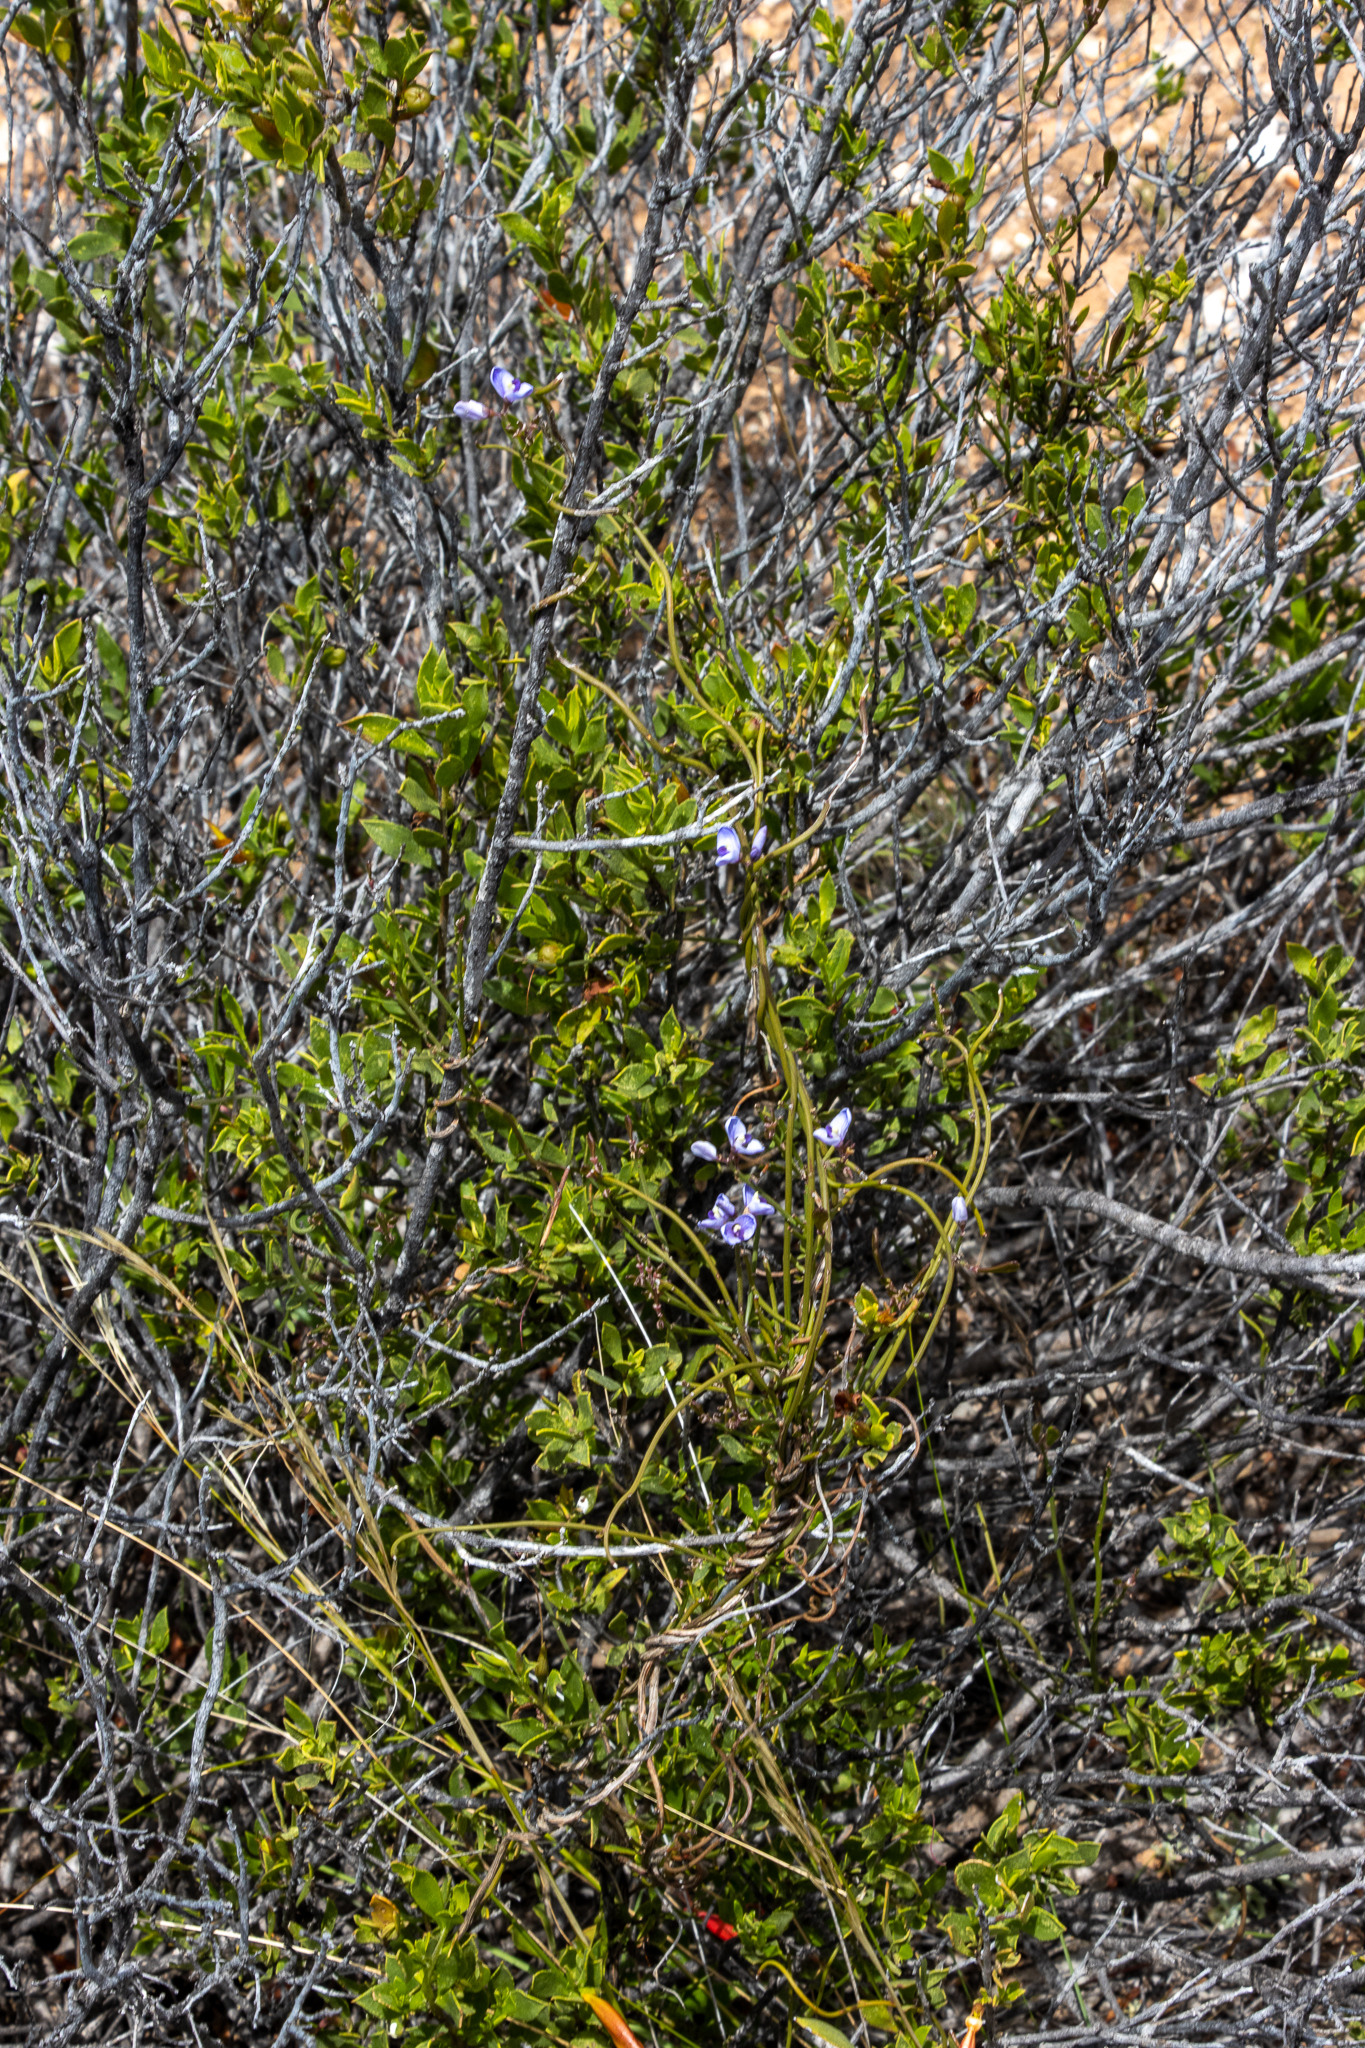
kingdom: Plantae
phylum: Tracheophyta
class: Magnoliopsida
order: Fabales
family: Polygalaceae
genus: Comesperma
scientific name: Comesperma volubile
